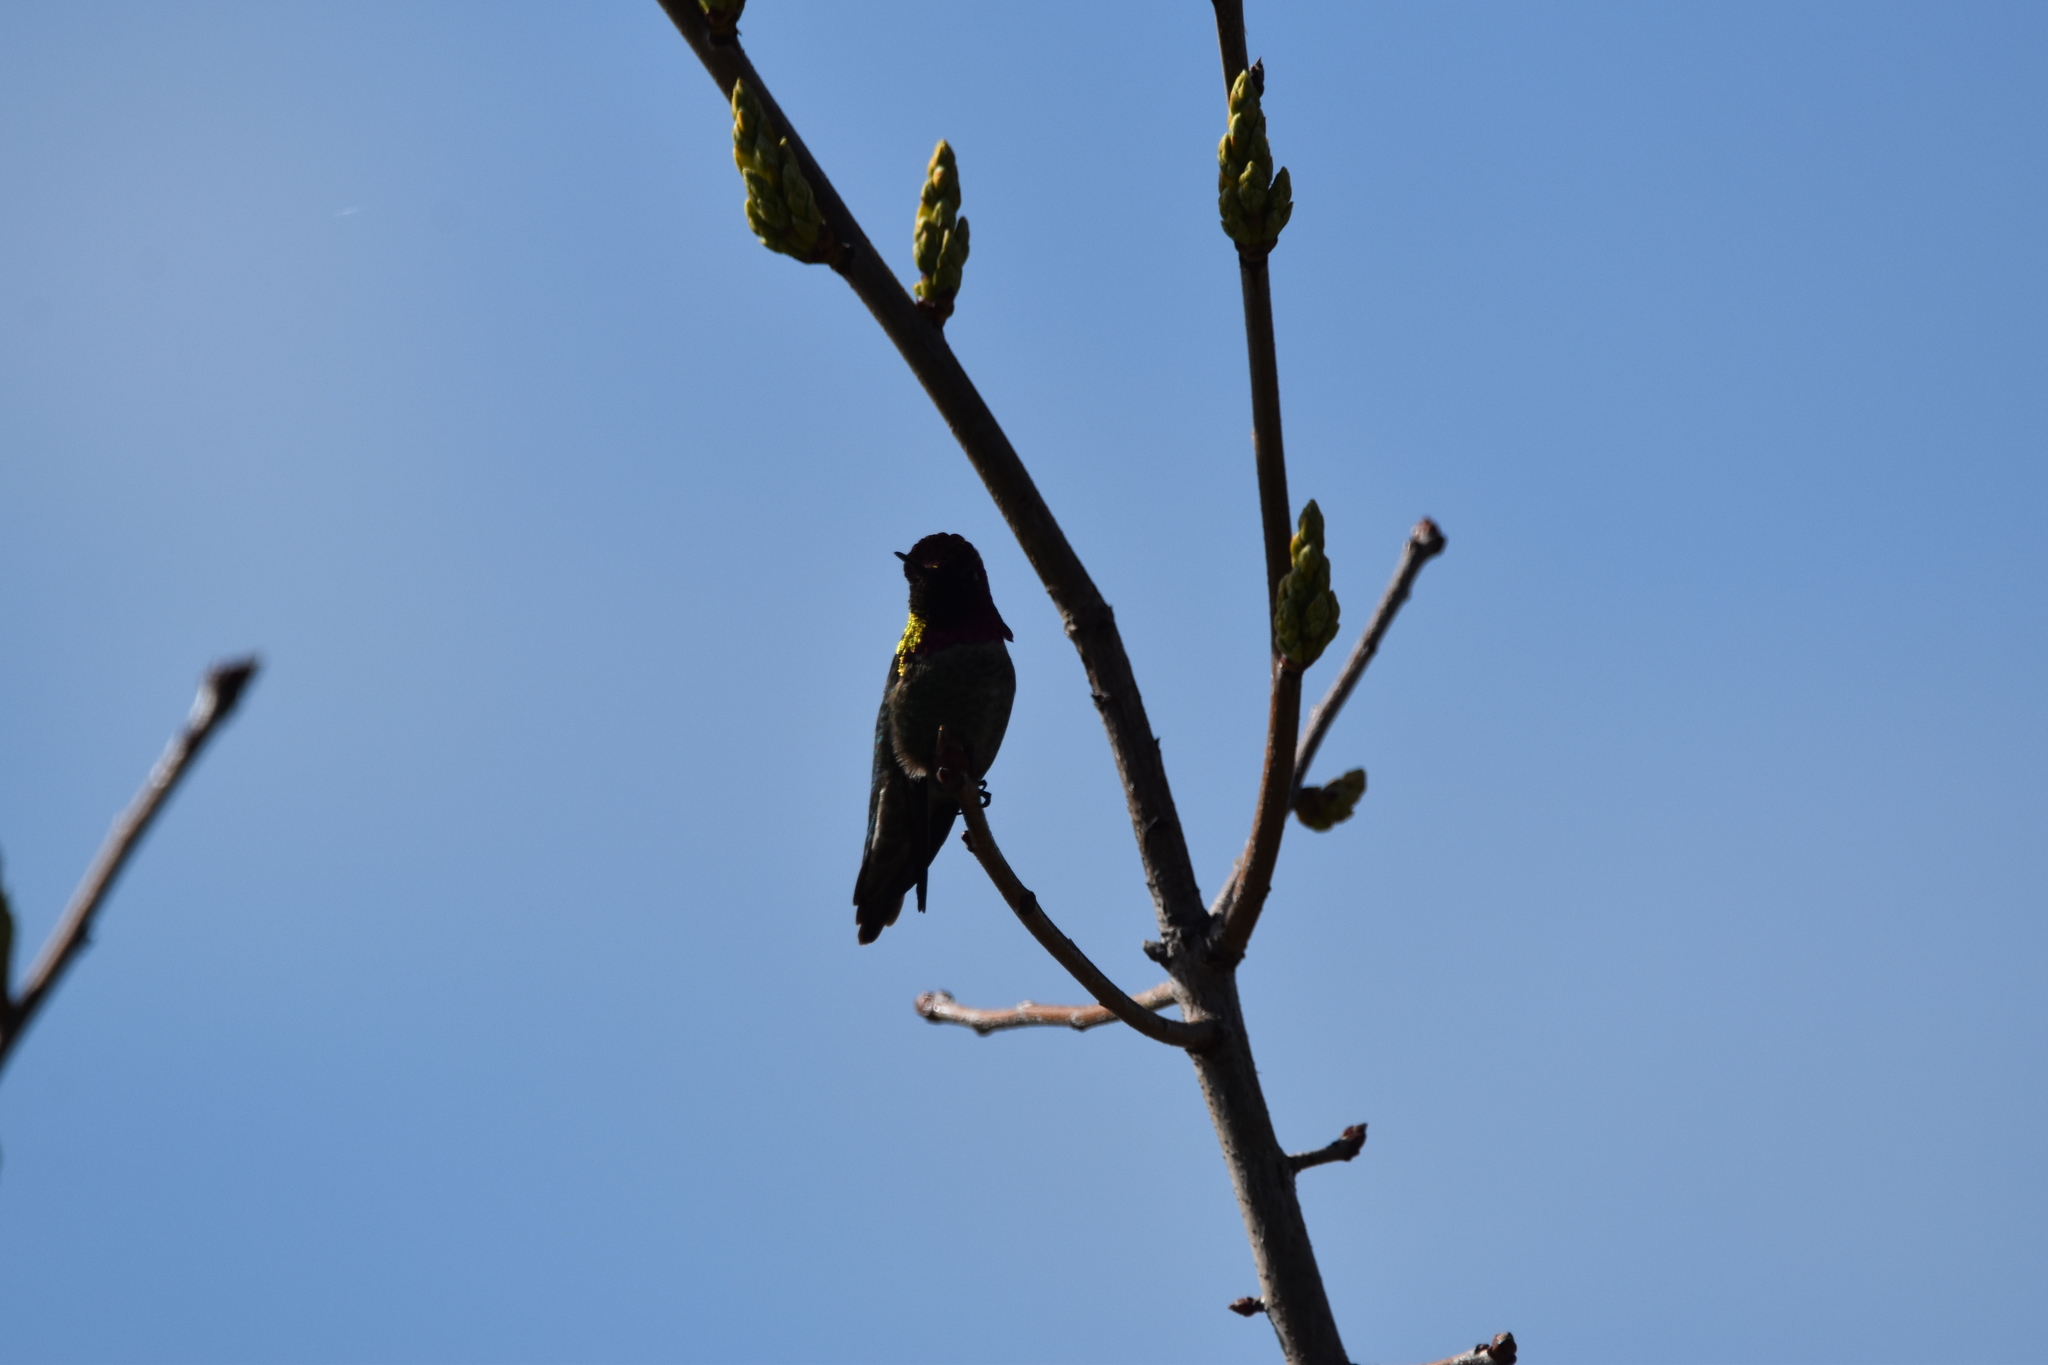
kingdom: Animalia
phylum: Chordata
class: Aves
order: Apodiformes
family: Trochilidae
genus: Calypte
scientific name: Calypte anna
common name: Anna's hummingbird
